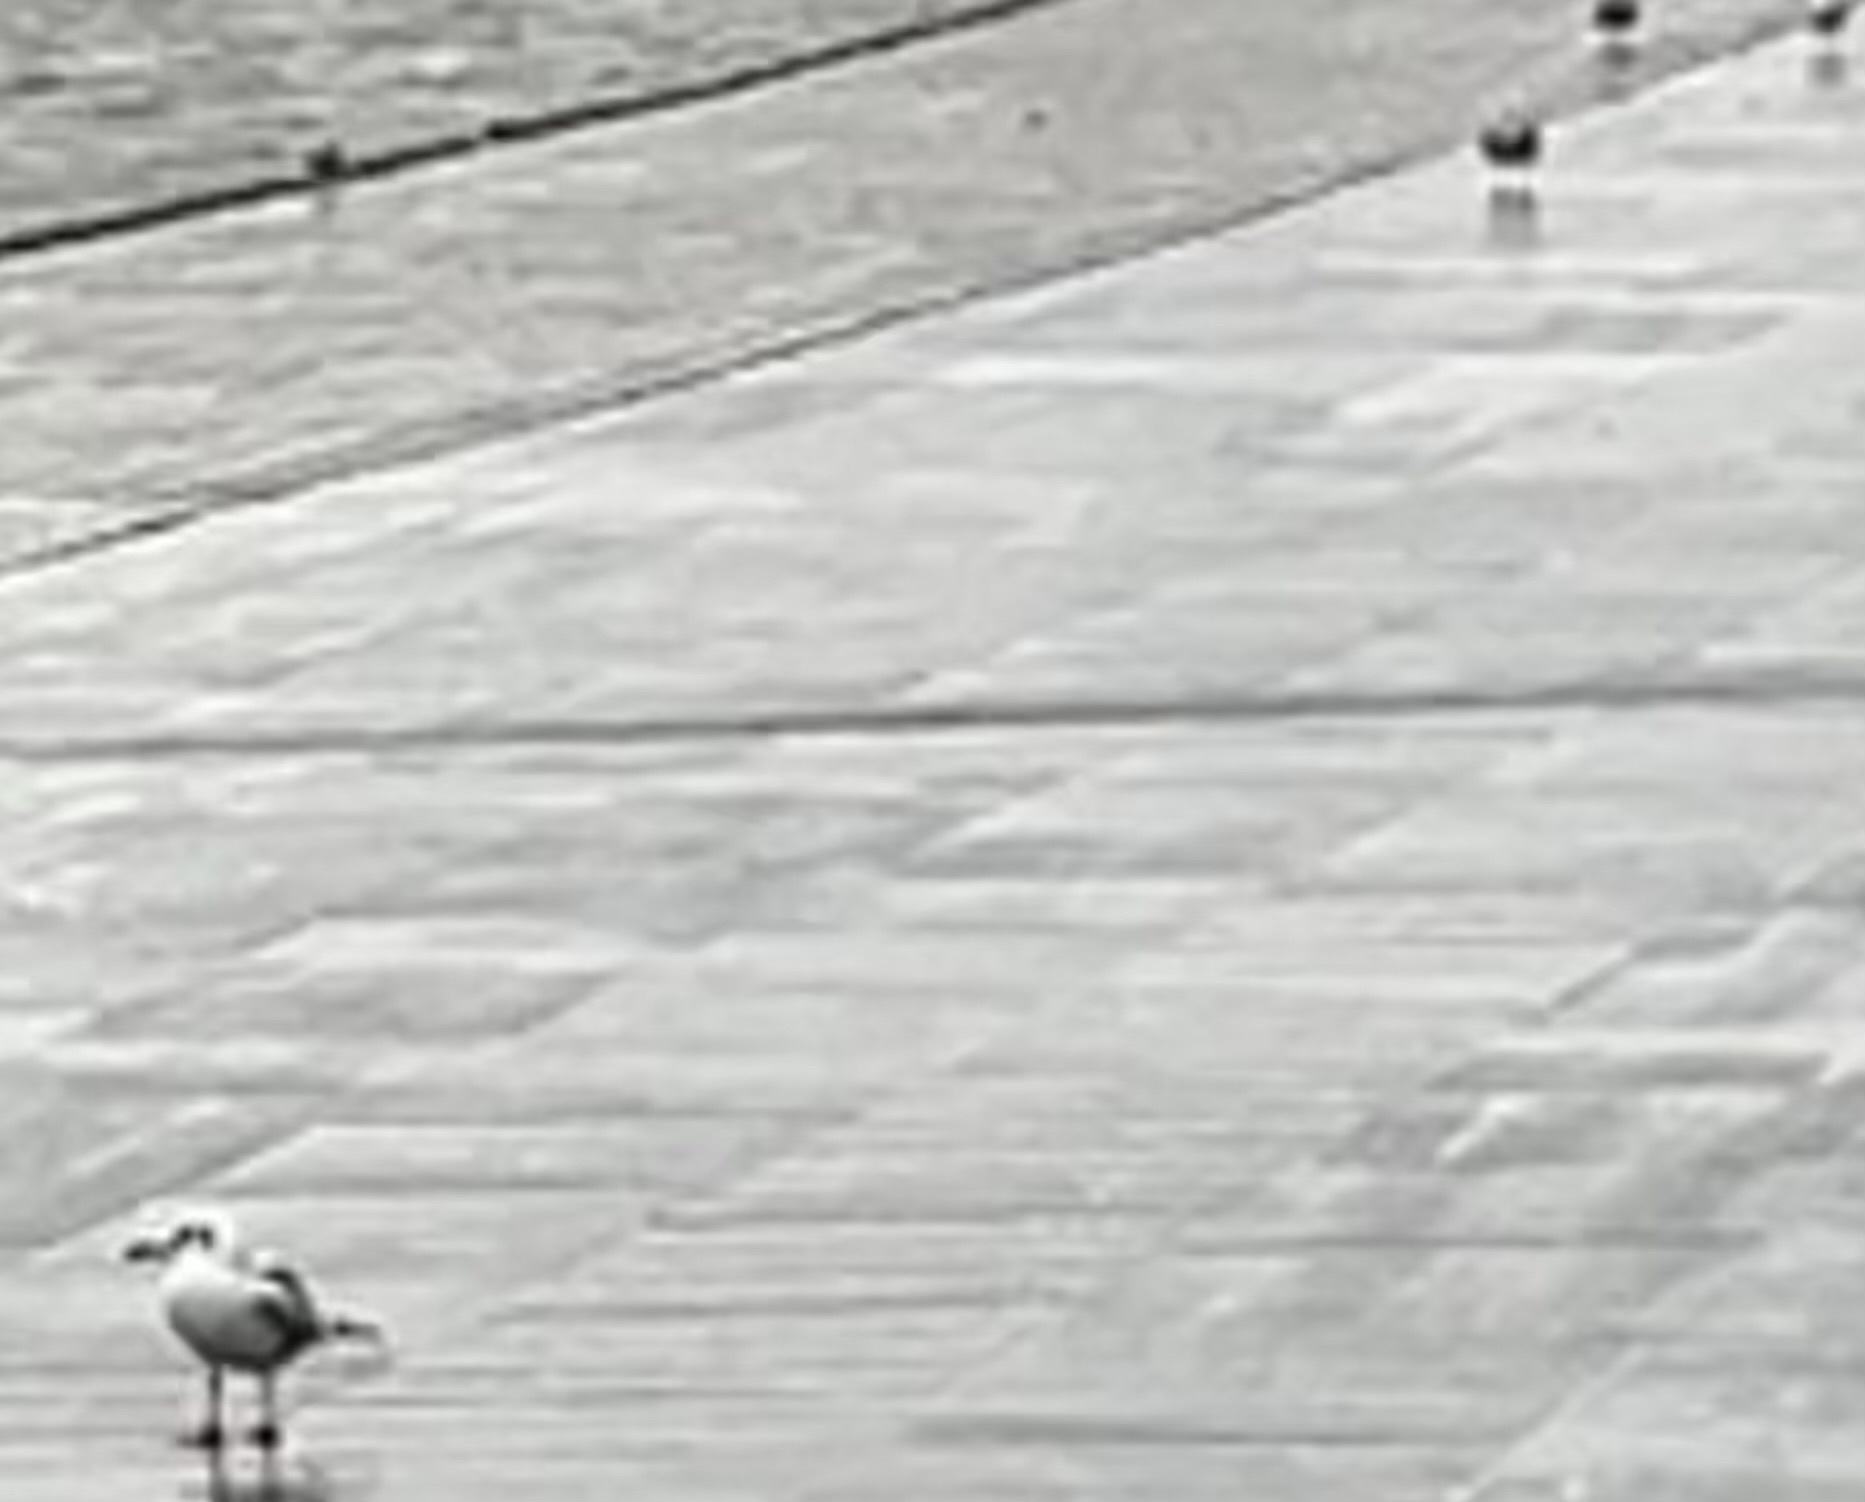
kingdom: Animalia
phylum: Chordata
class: Aves
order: Charadriiformes
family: Laridae
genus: Chroicocephalus
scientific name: Chroicocephalus ridibundus
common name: Black-headed gull
